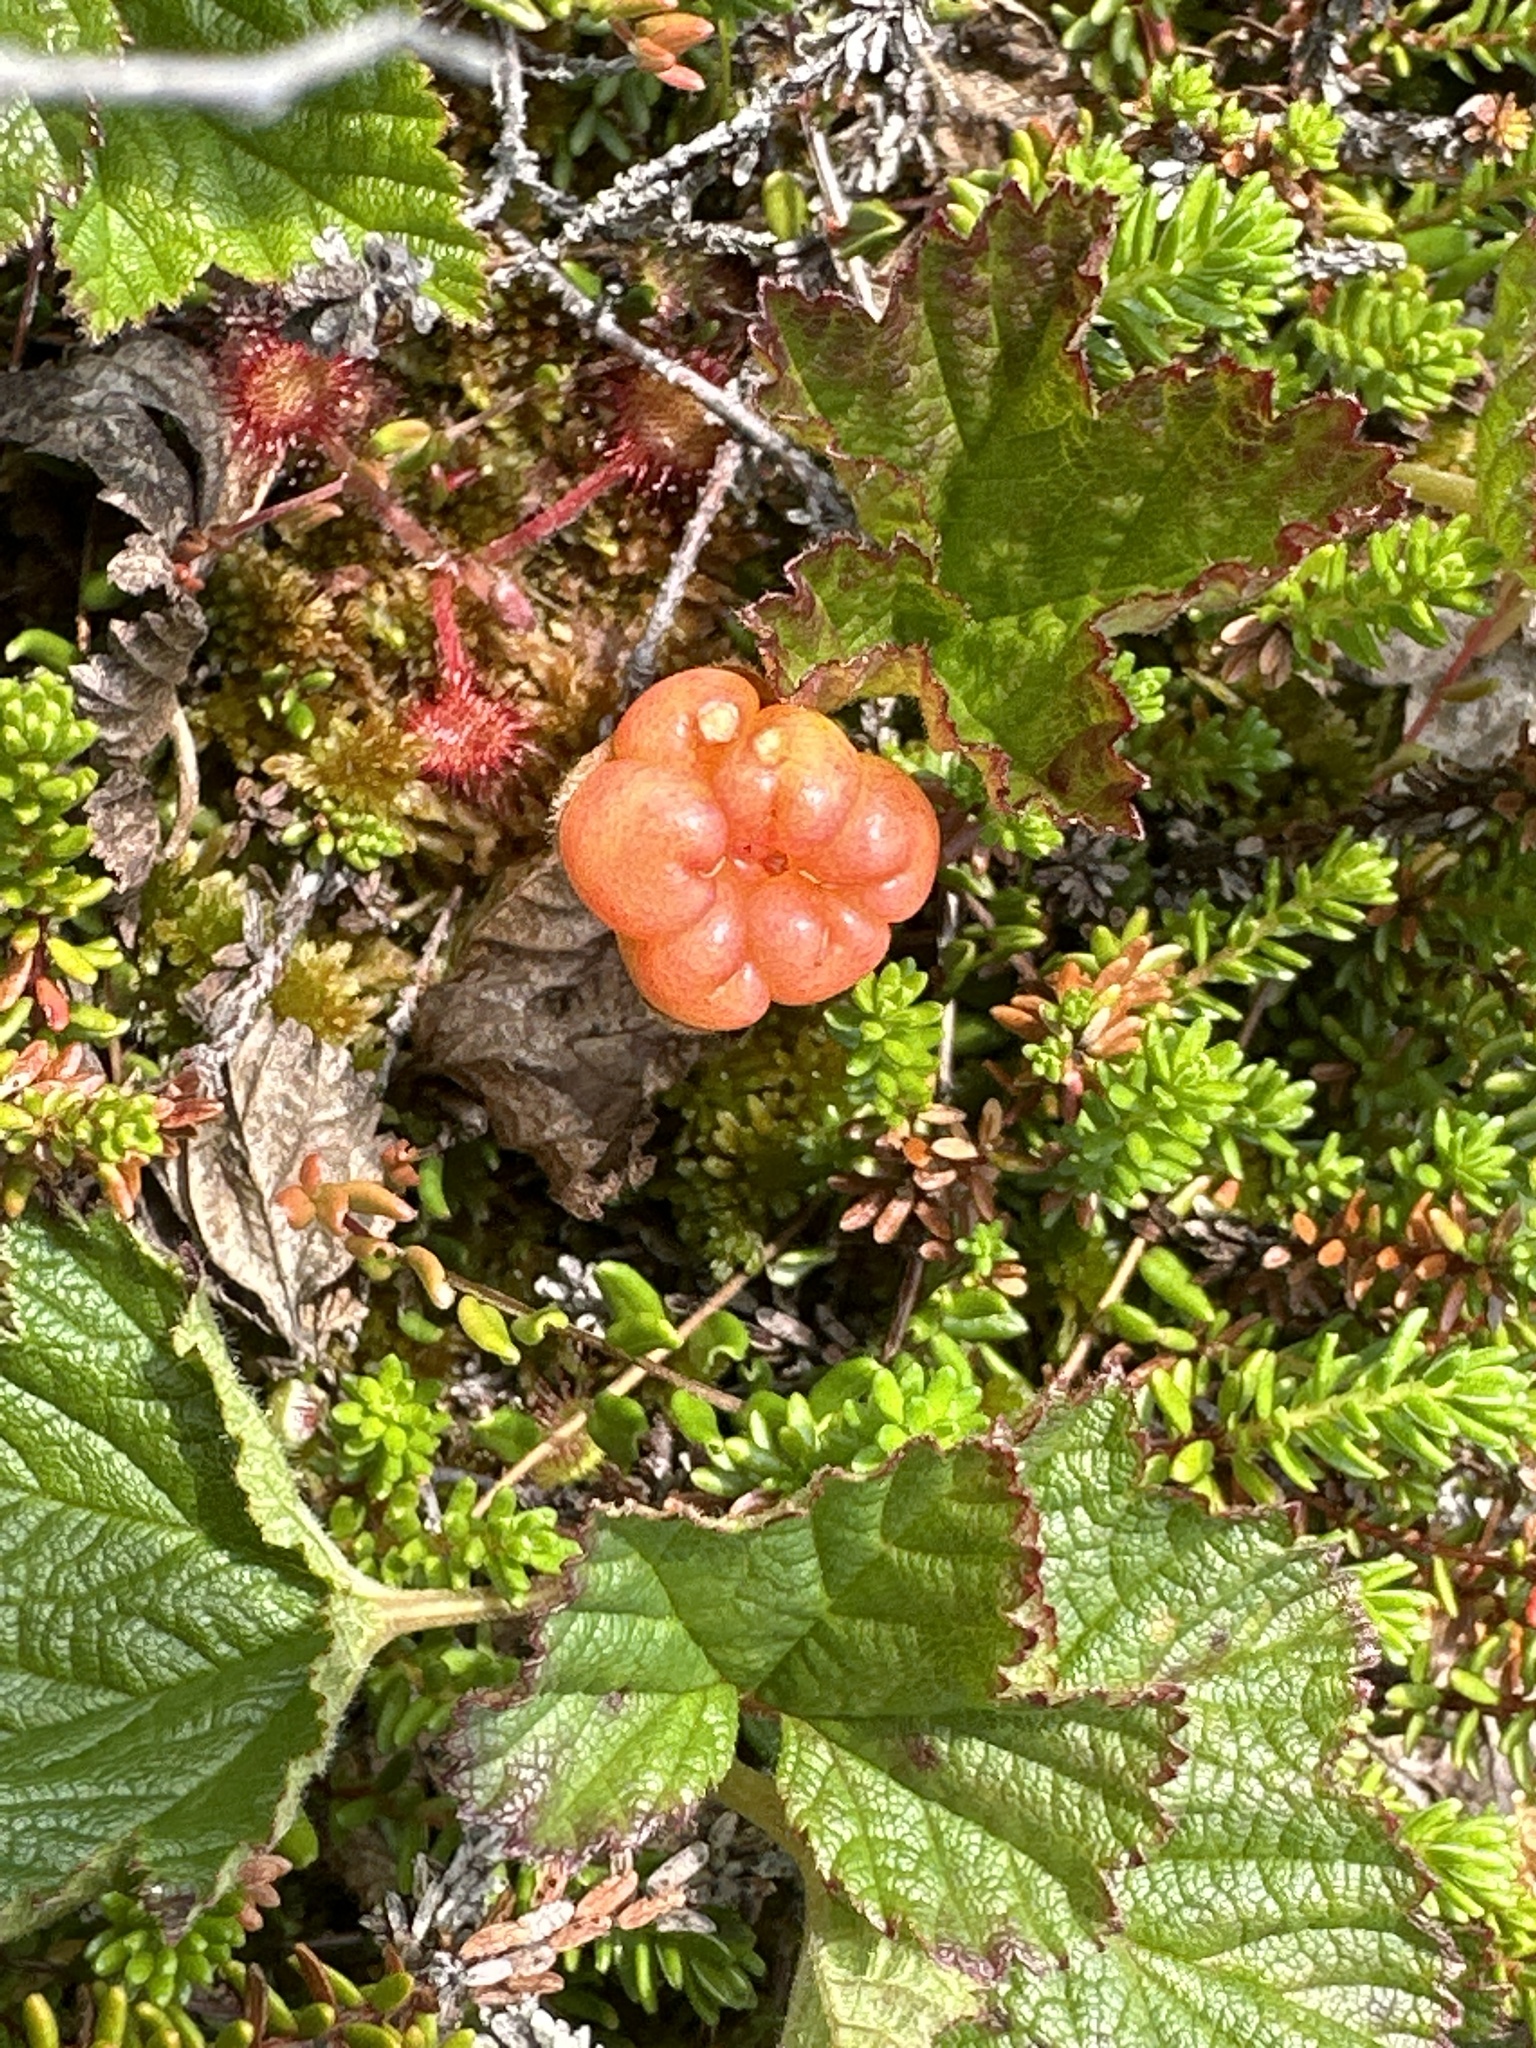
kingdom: Plantae
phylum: Tracheophyta
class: Magnoliopsida
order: Rosales
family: Rosaceae
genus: Rubus
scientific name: Rubus chamaemorus
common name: Cloudberry
